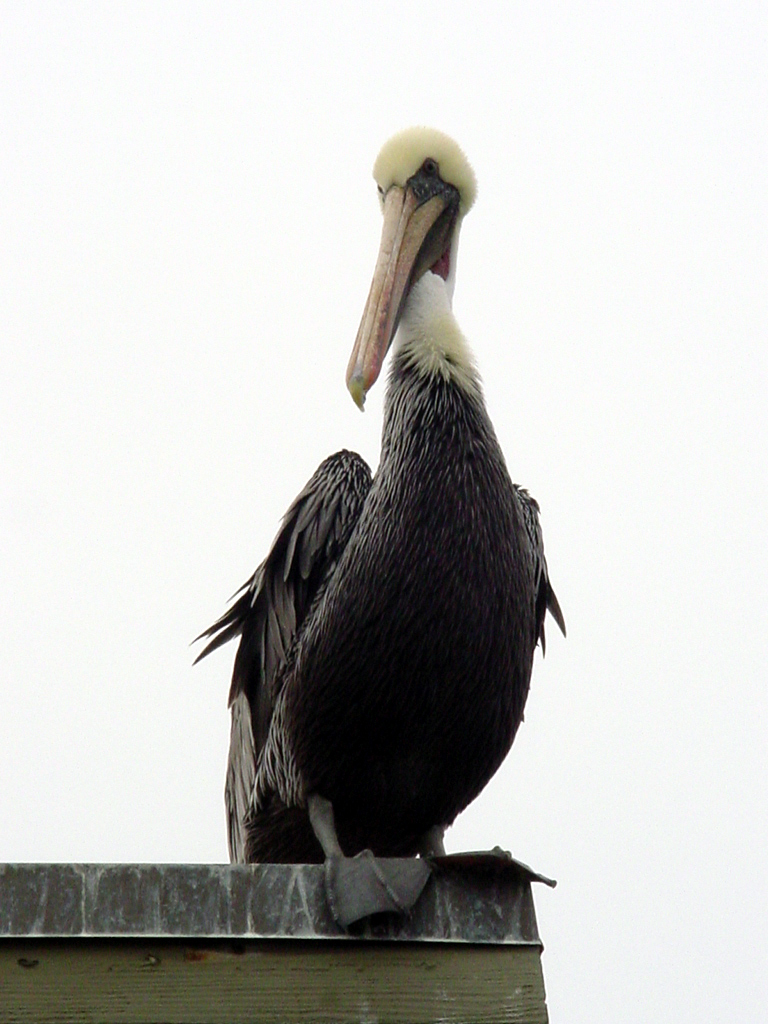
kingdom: Animalia
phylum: Chordata
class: Aves
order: Pelecaniformes
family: Pelecanidae
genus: Pelecanus
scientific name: Pelecanus occidentalis
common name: Brown pelican
